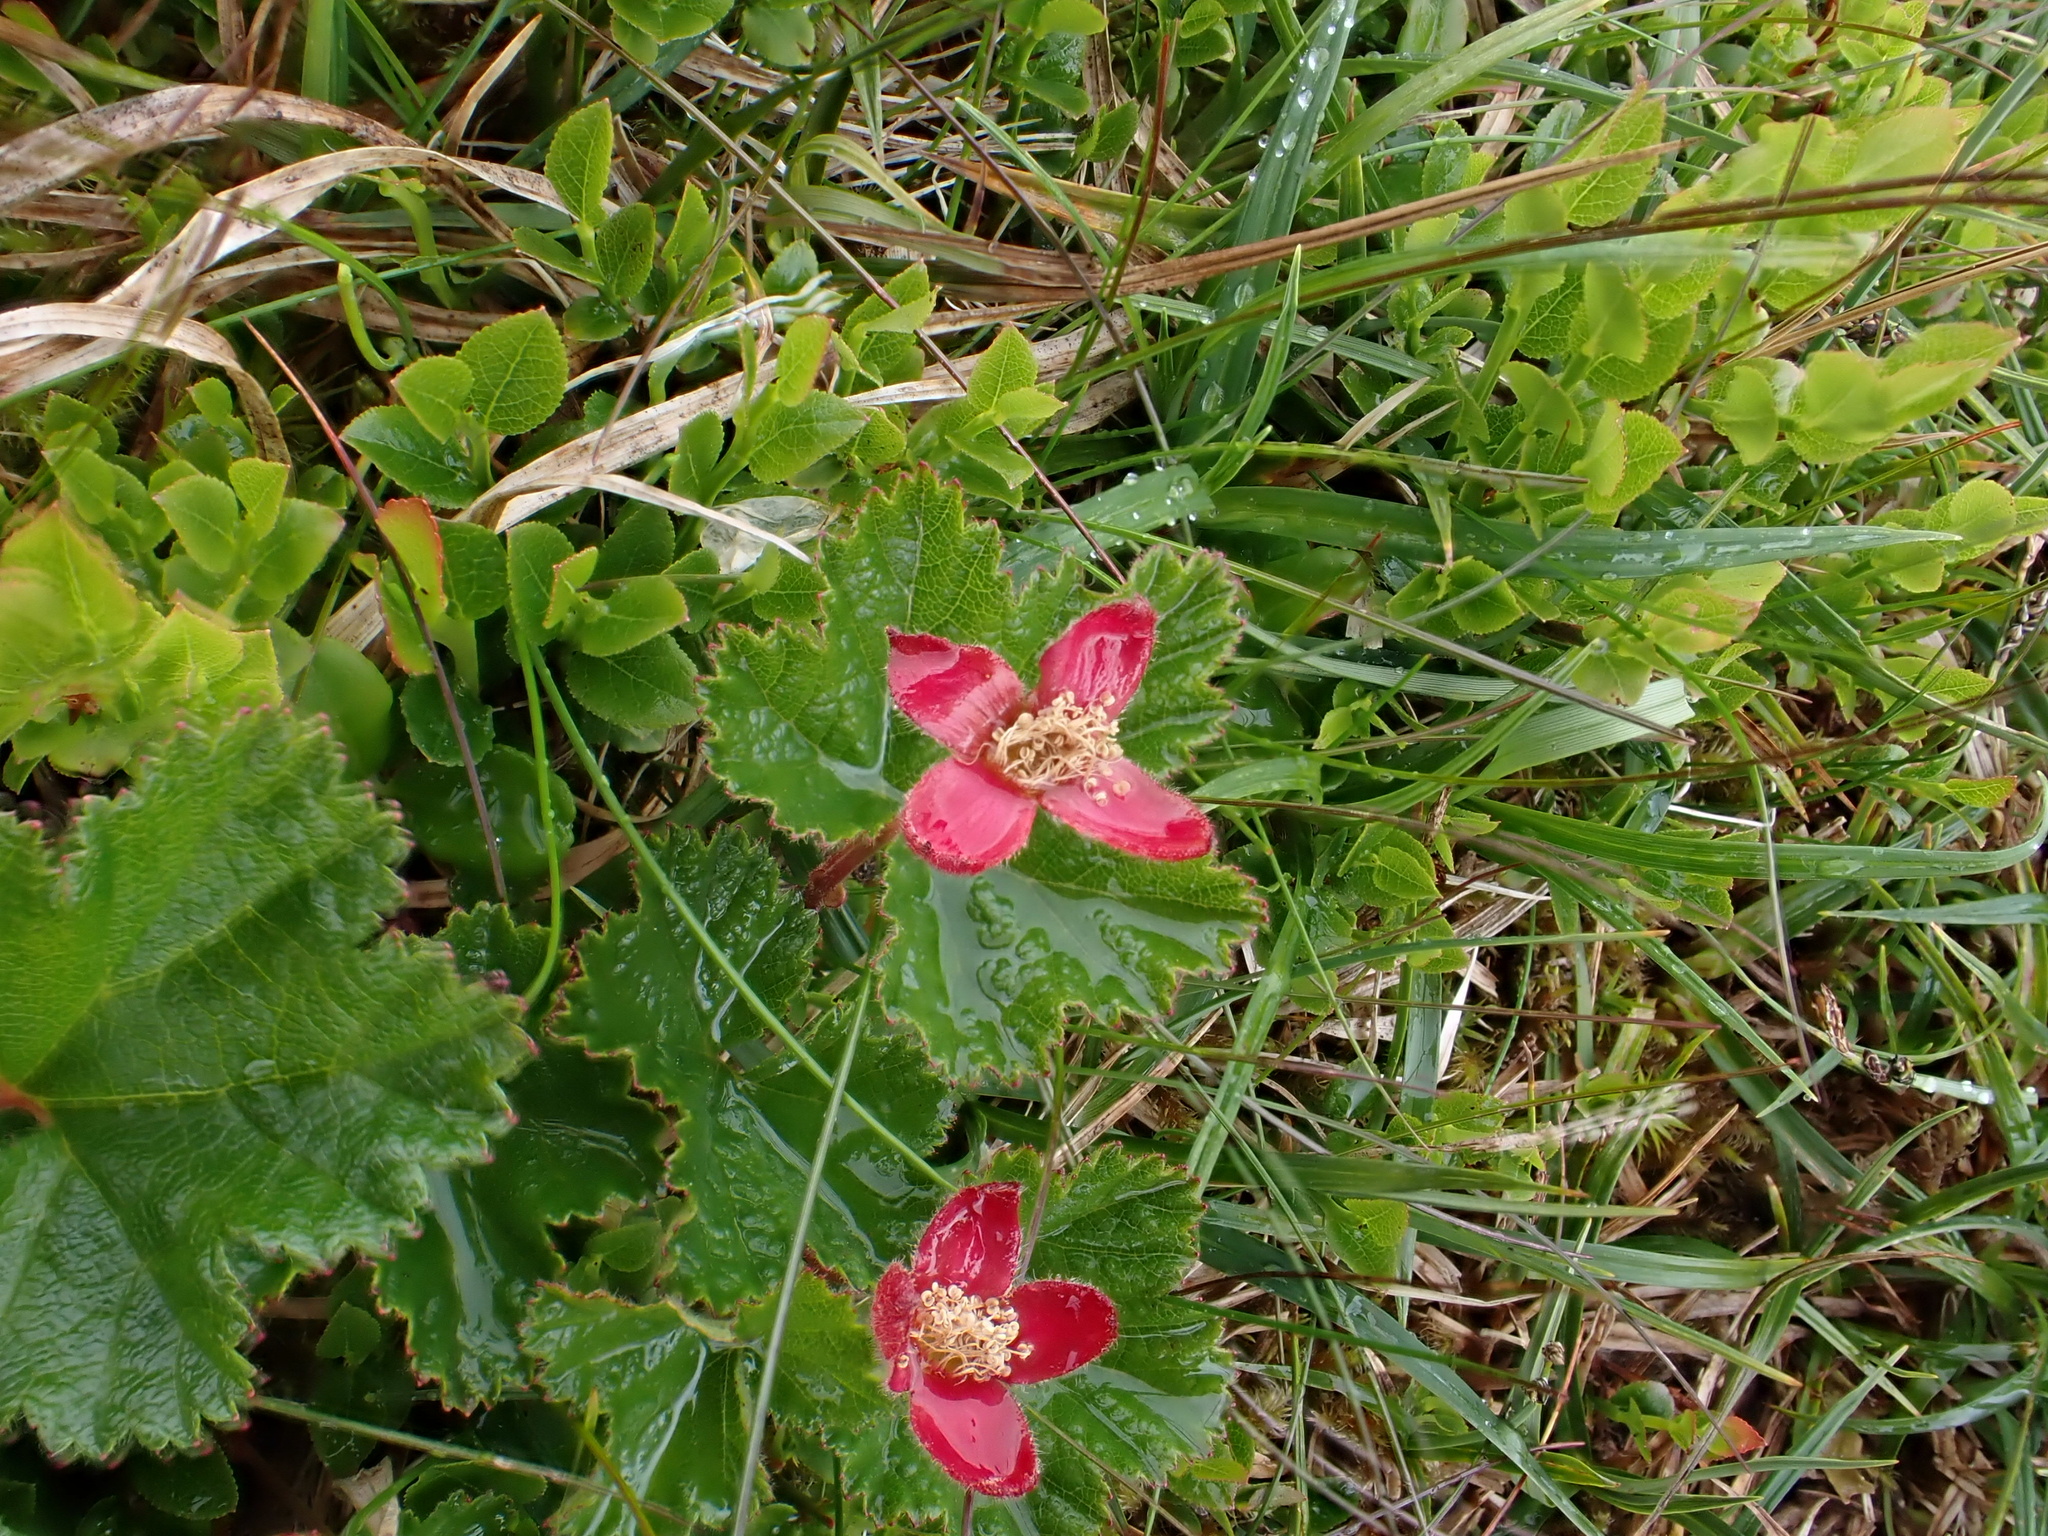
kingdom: Plantae
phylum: Tracheophyta
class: Magnoliopsida
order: Rosales
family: Rosaceae
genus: Rubus
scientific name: Rubus chamaemorus
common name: Cloudberry
